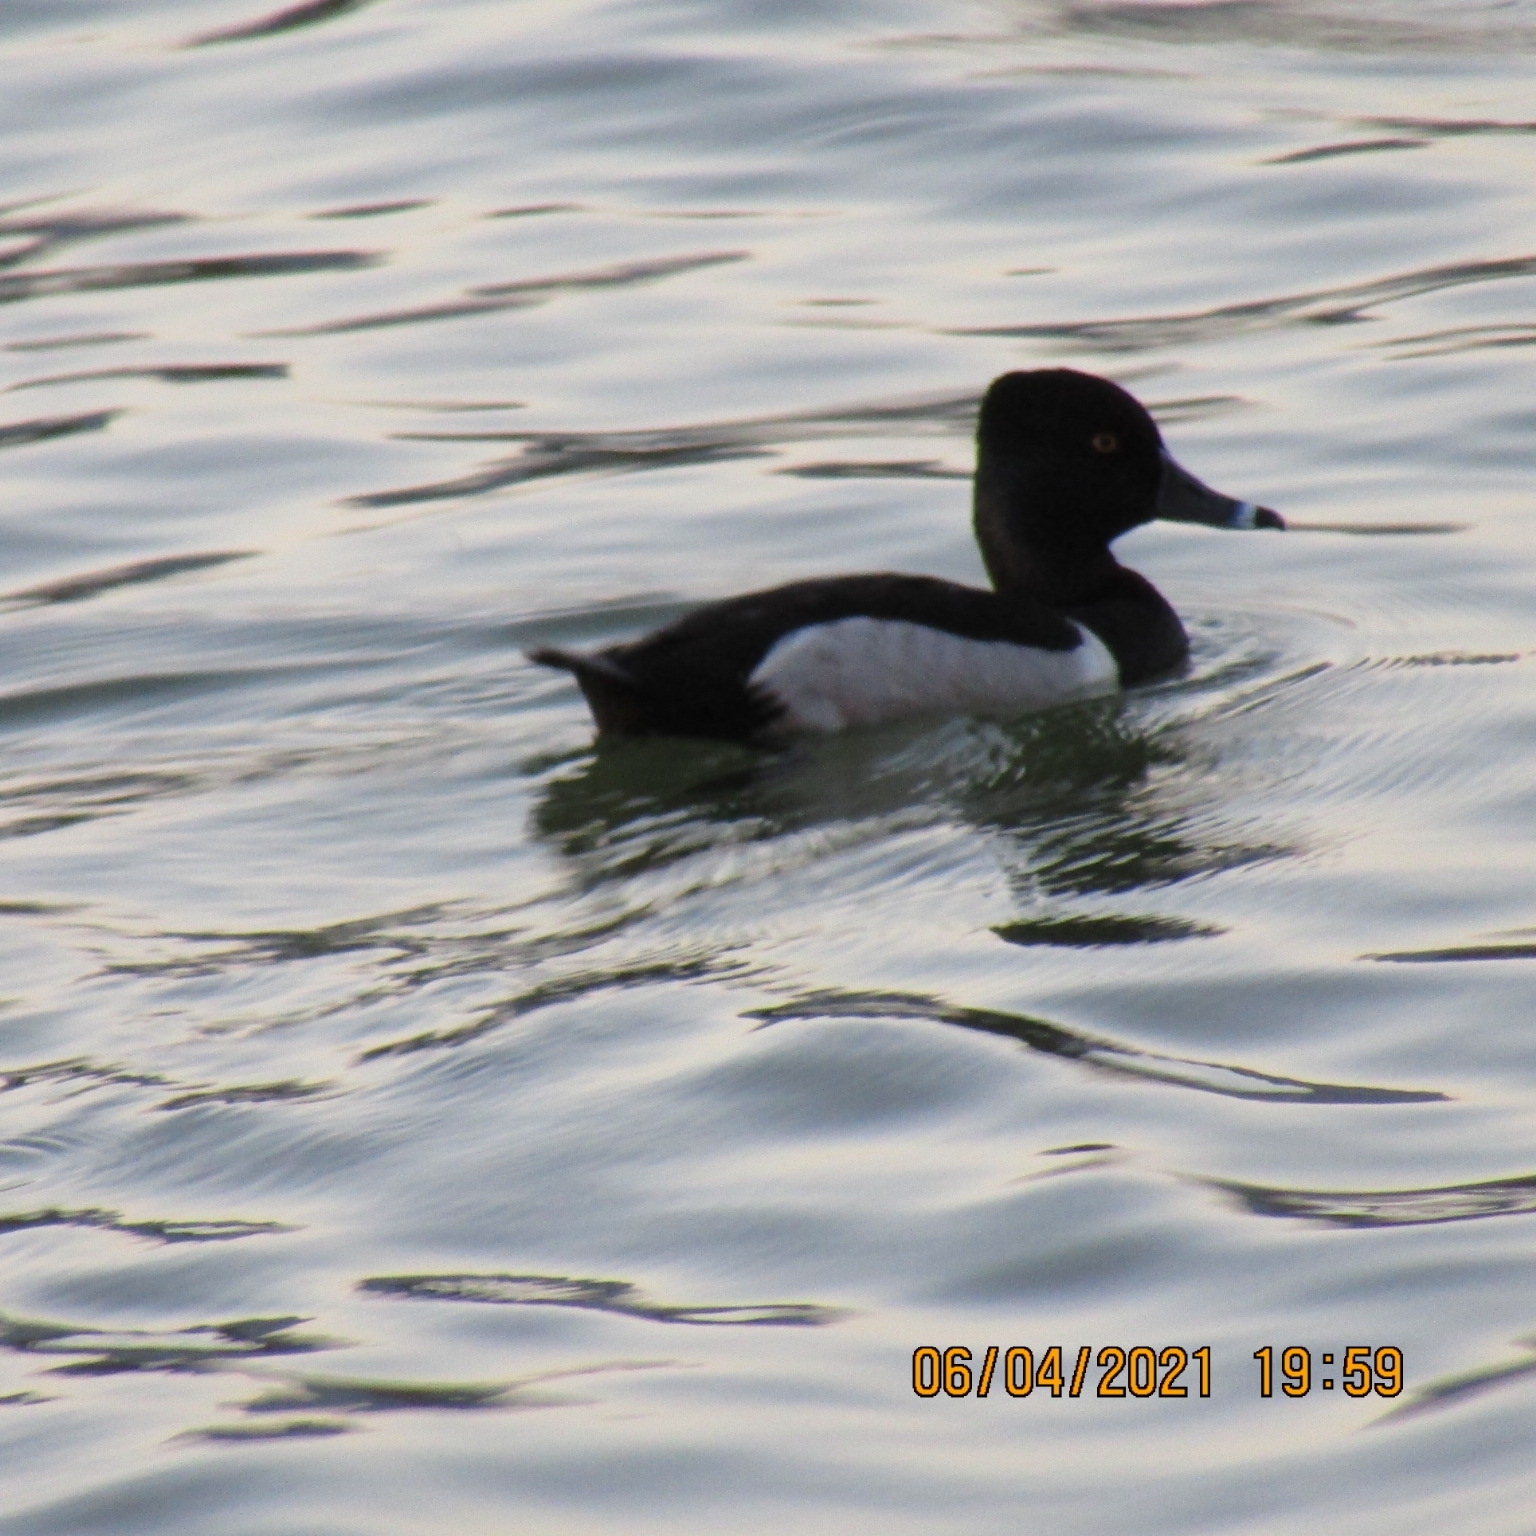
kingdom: Animalia
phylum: Chordata
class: Aves
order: Anseriformes
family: Anatidae
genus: Aythya
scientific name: Aythya collaris
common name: Ring-necked duck
